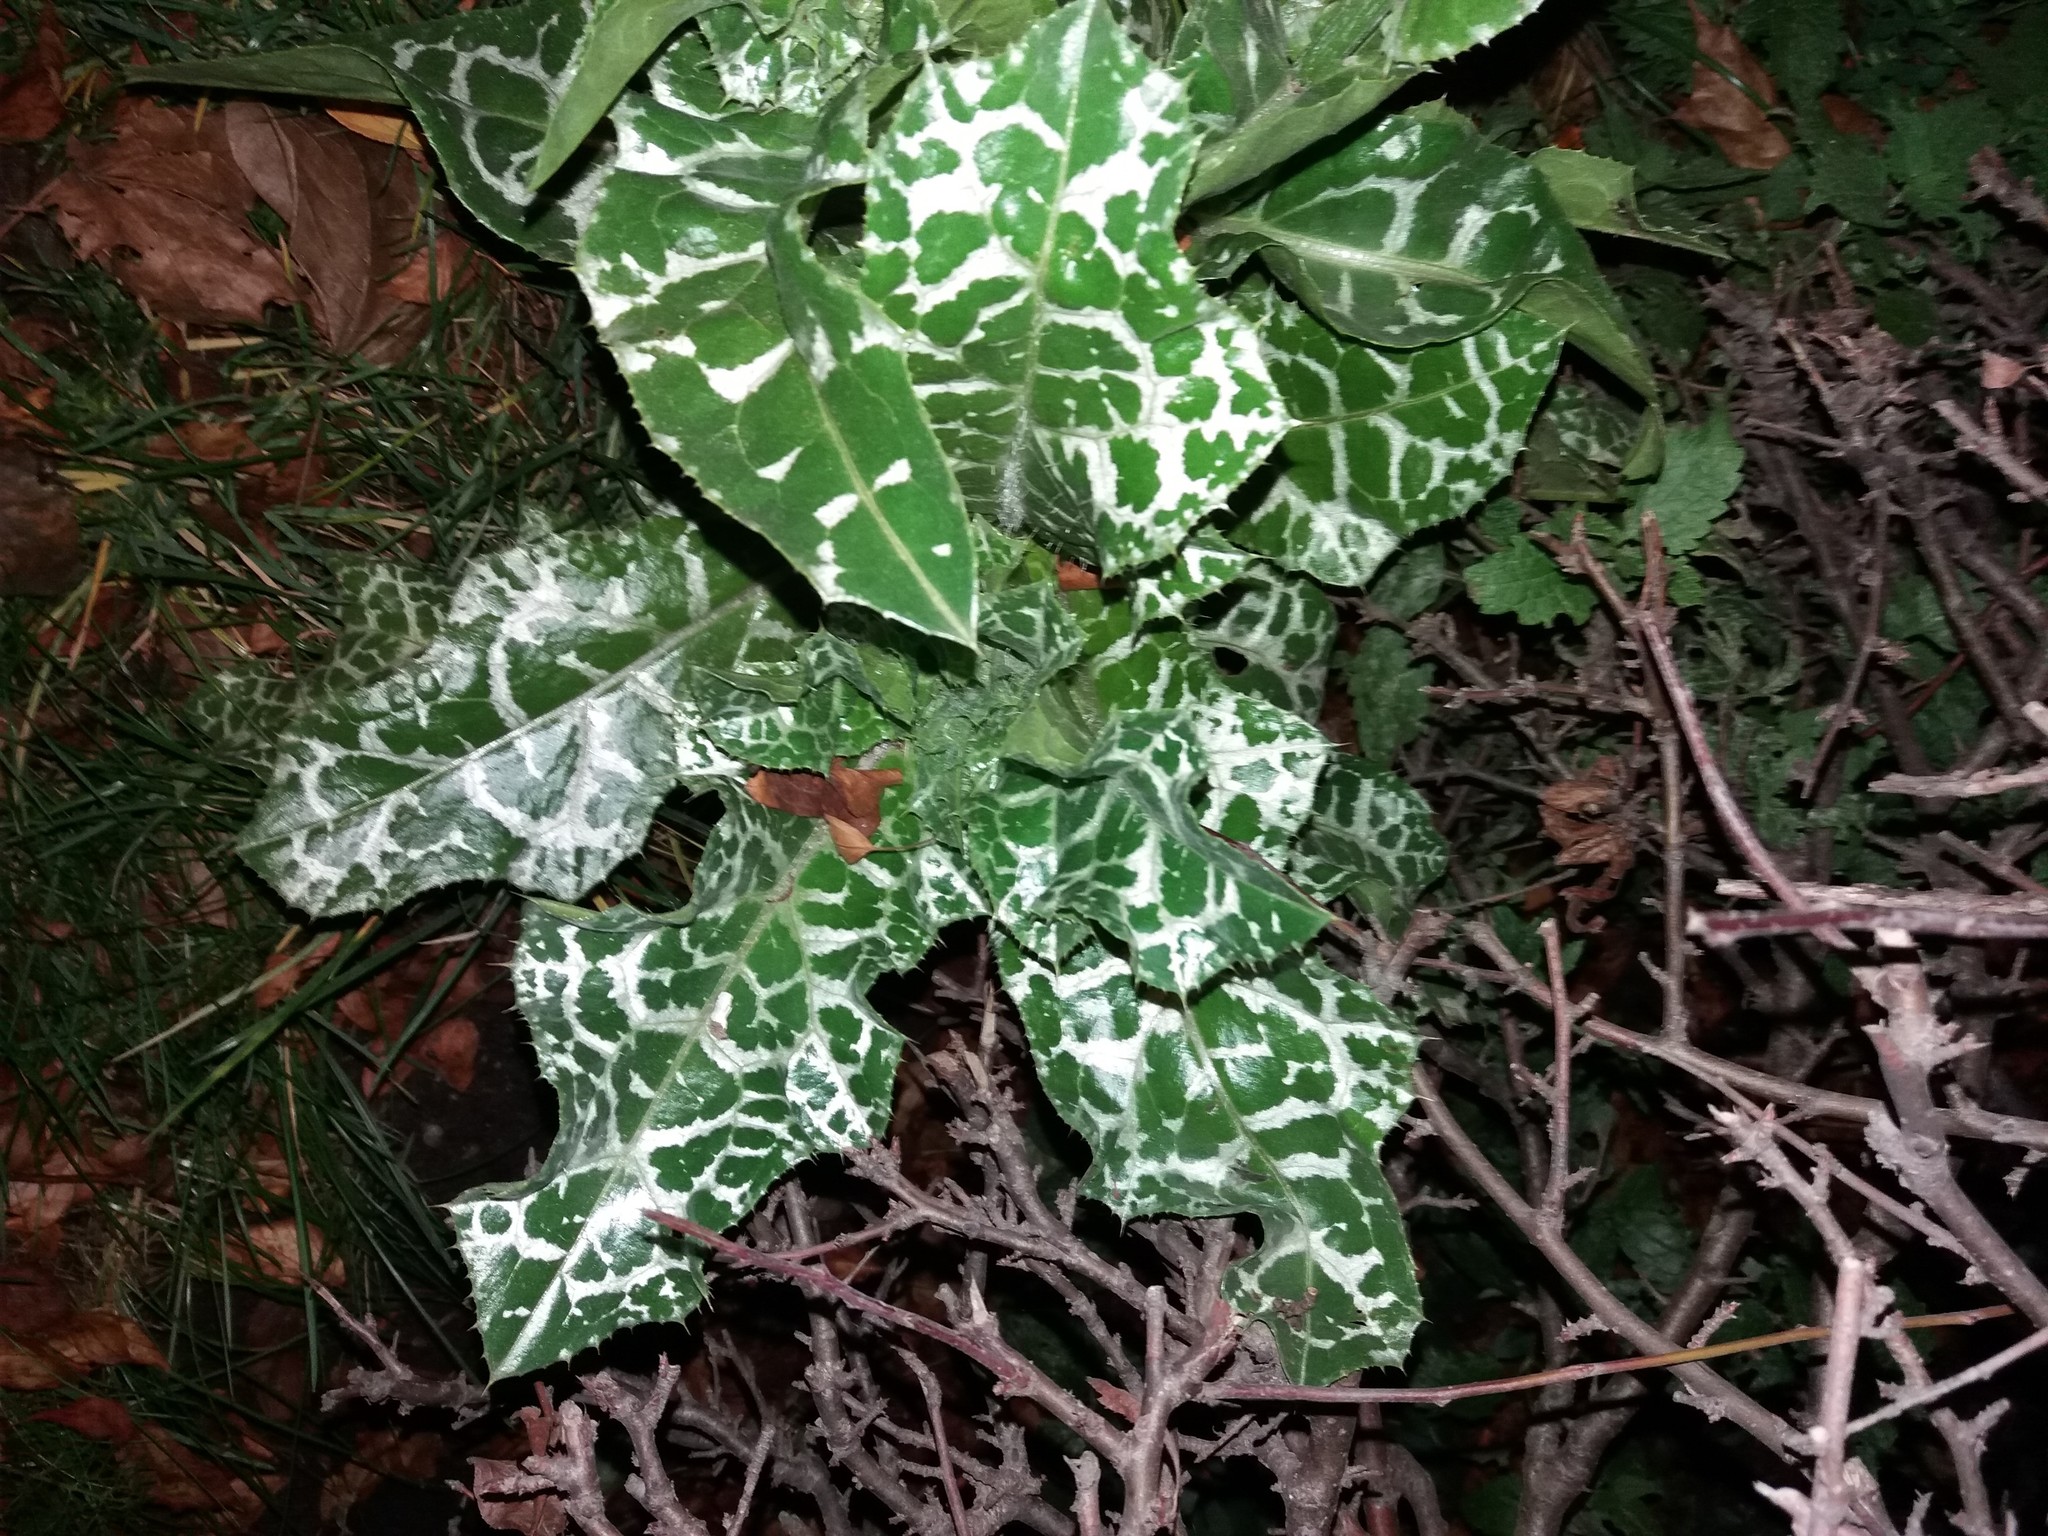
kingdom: Plantae
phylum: Tracheophyta
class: Magnoliopsida
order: Asterales
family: Asteraceae
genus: Silybum
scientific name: Silybum marianum
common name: Milk thistle
